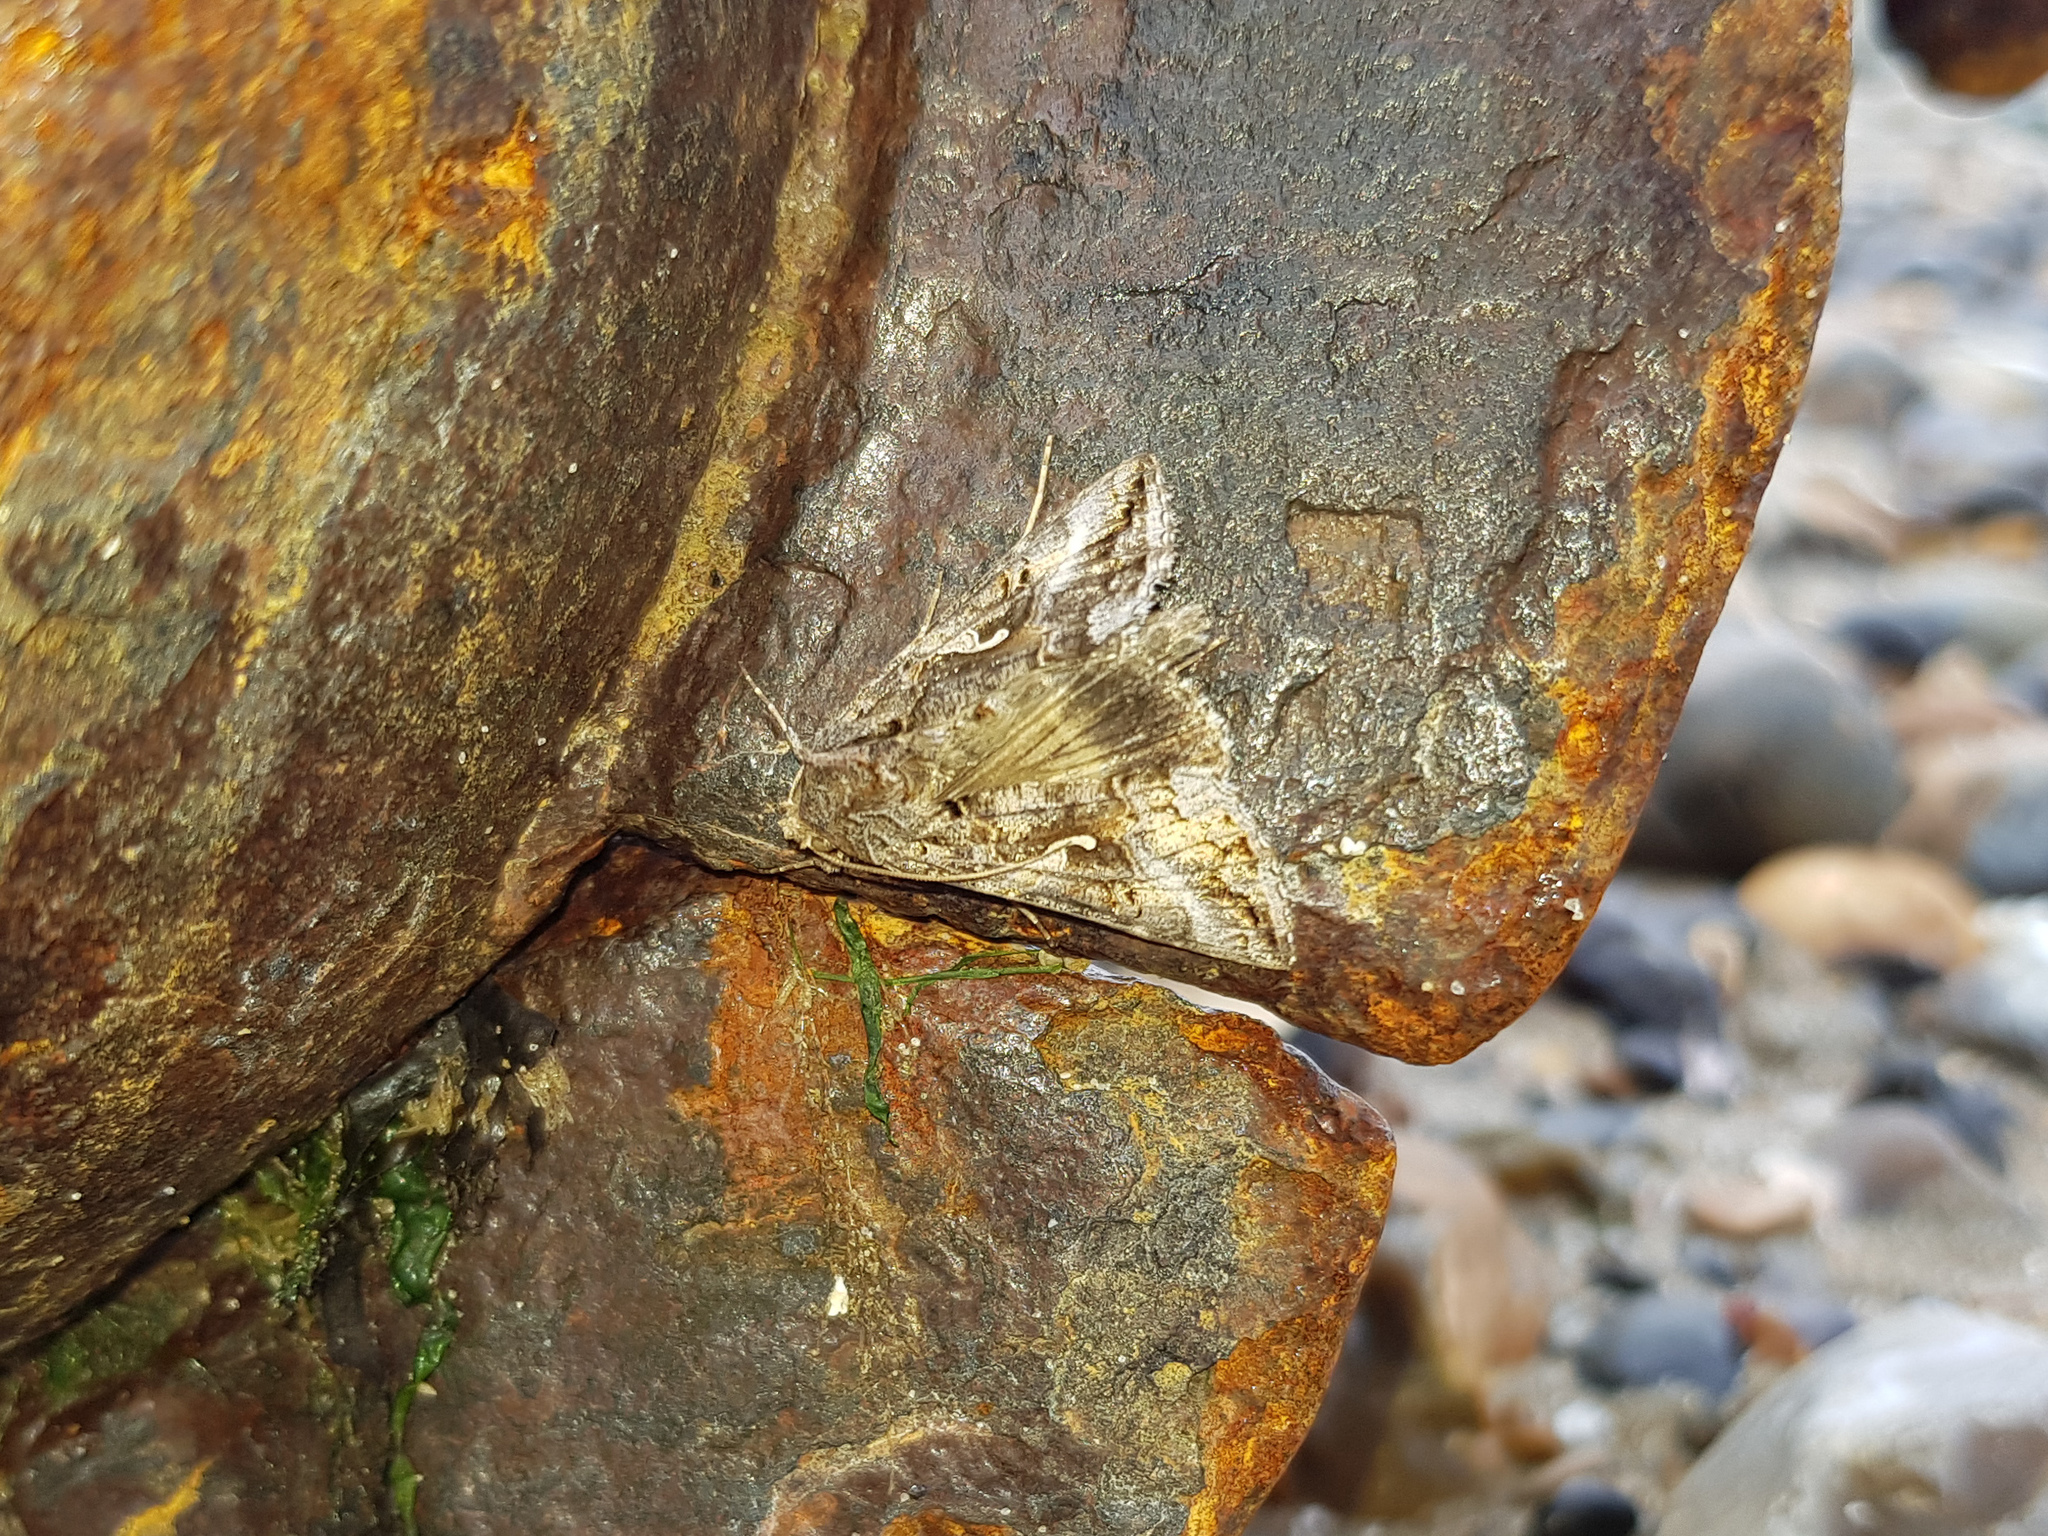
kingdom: Animalia
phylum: Arthropoda
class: Insecta
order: Lepidoptera
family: Noctuidae
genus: Autographa
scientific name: Autographa gamma
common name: Silver y
